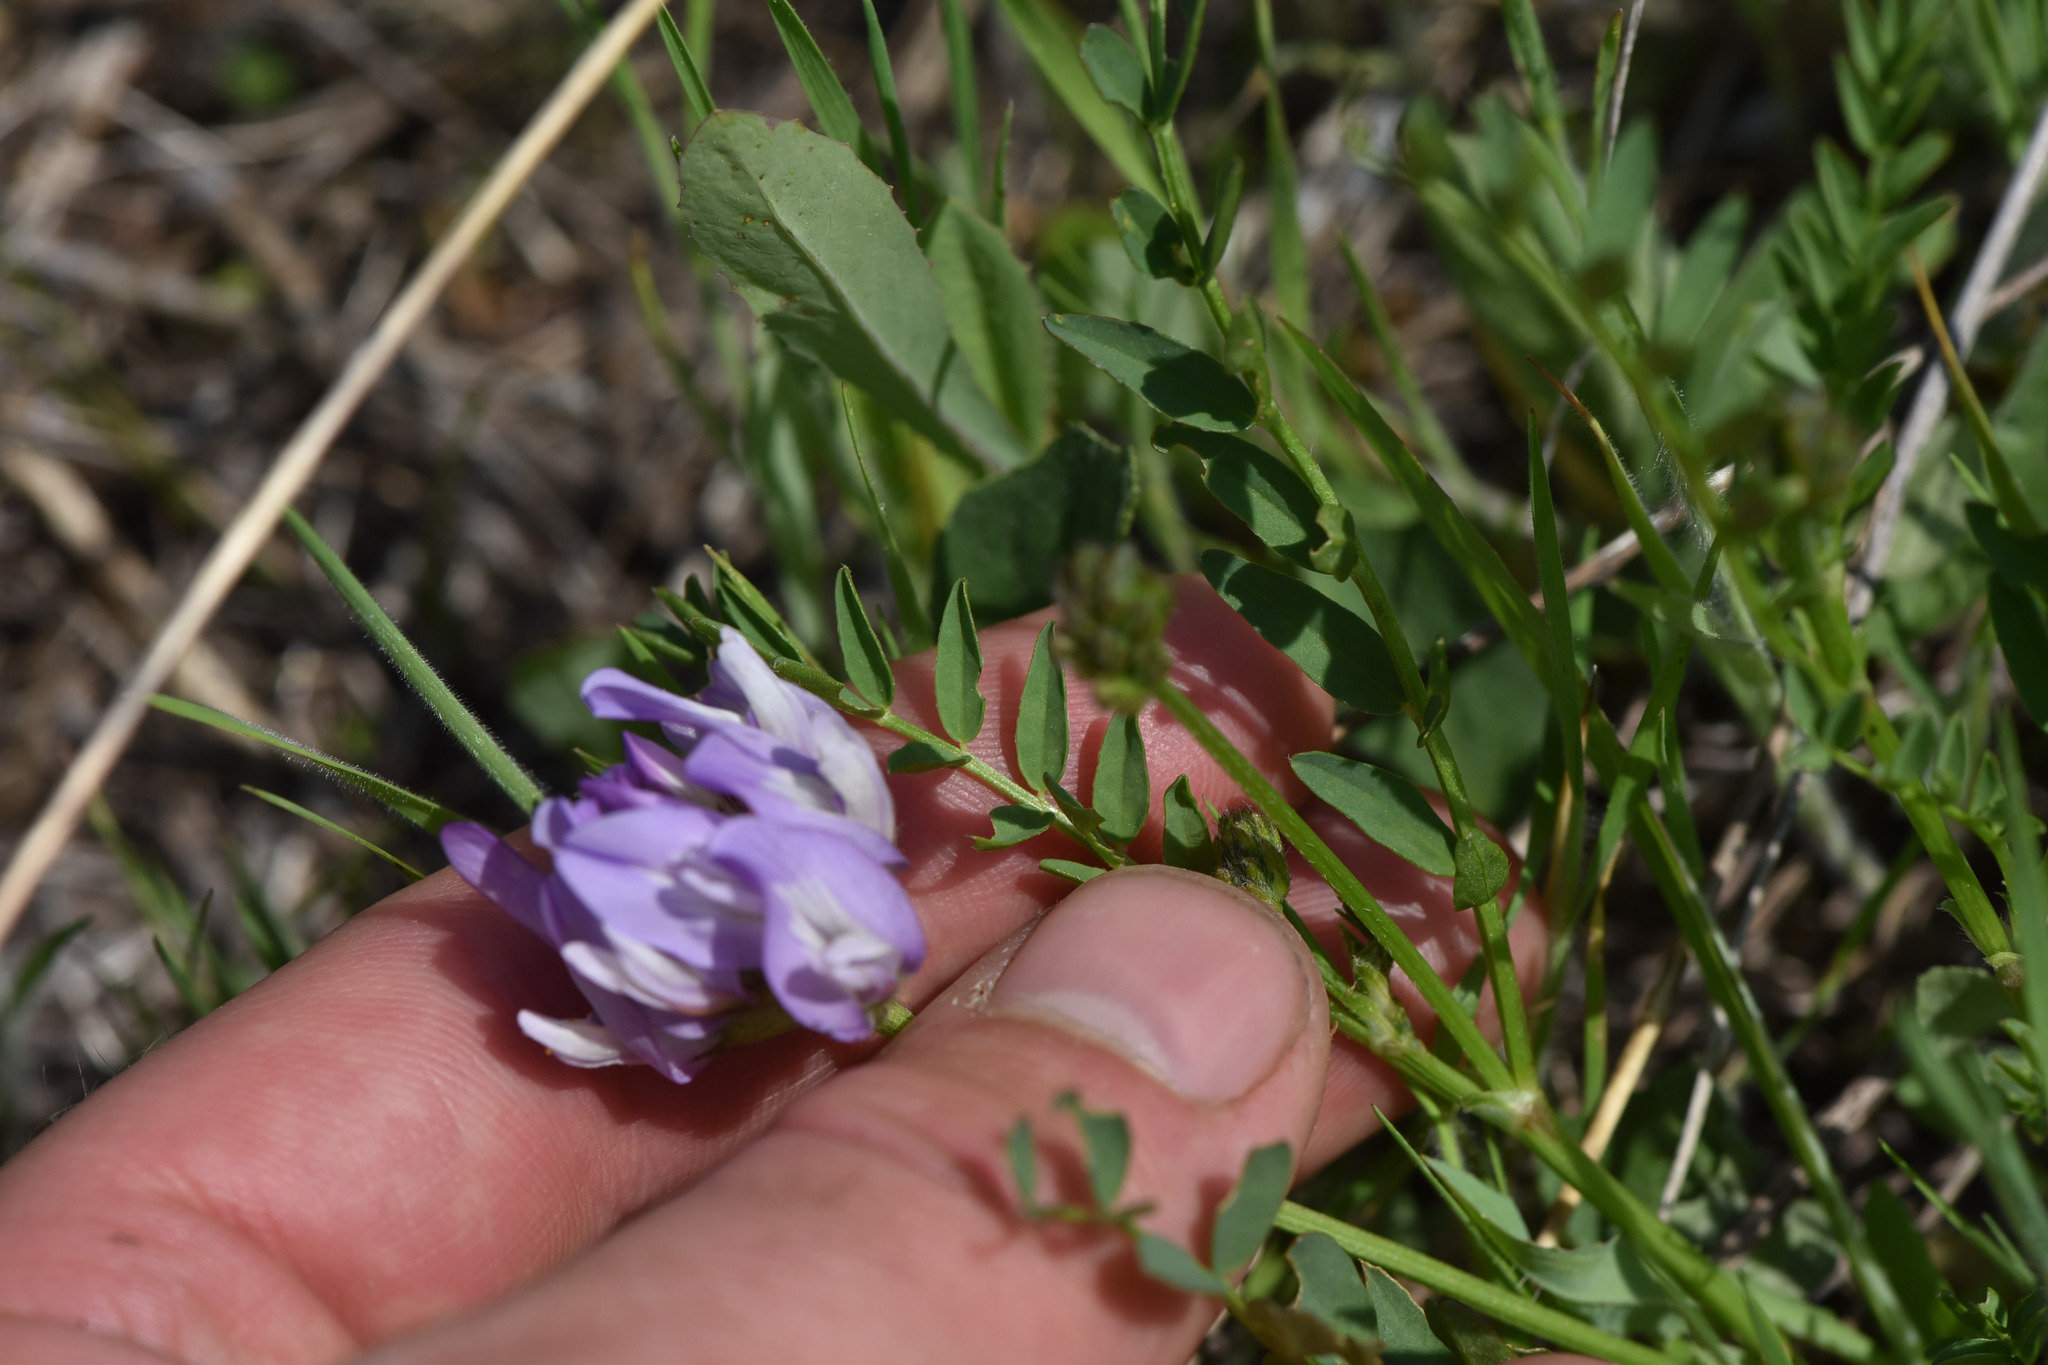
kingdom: Plantae
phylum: Tracheophyta
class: Magnoliopsida
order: Fabales
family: Fabaceae
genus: Astragalus
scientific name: Astragalus agrestis
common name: Field milk-vetch
